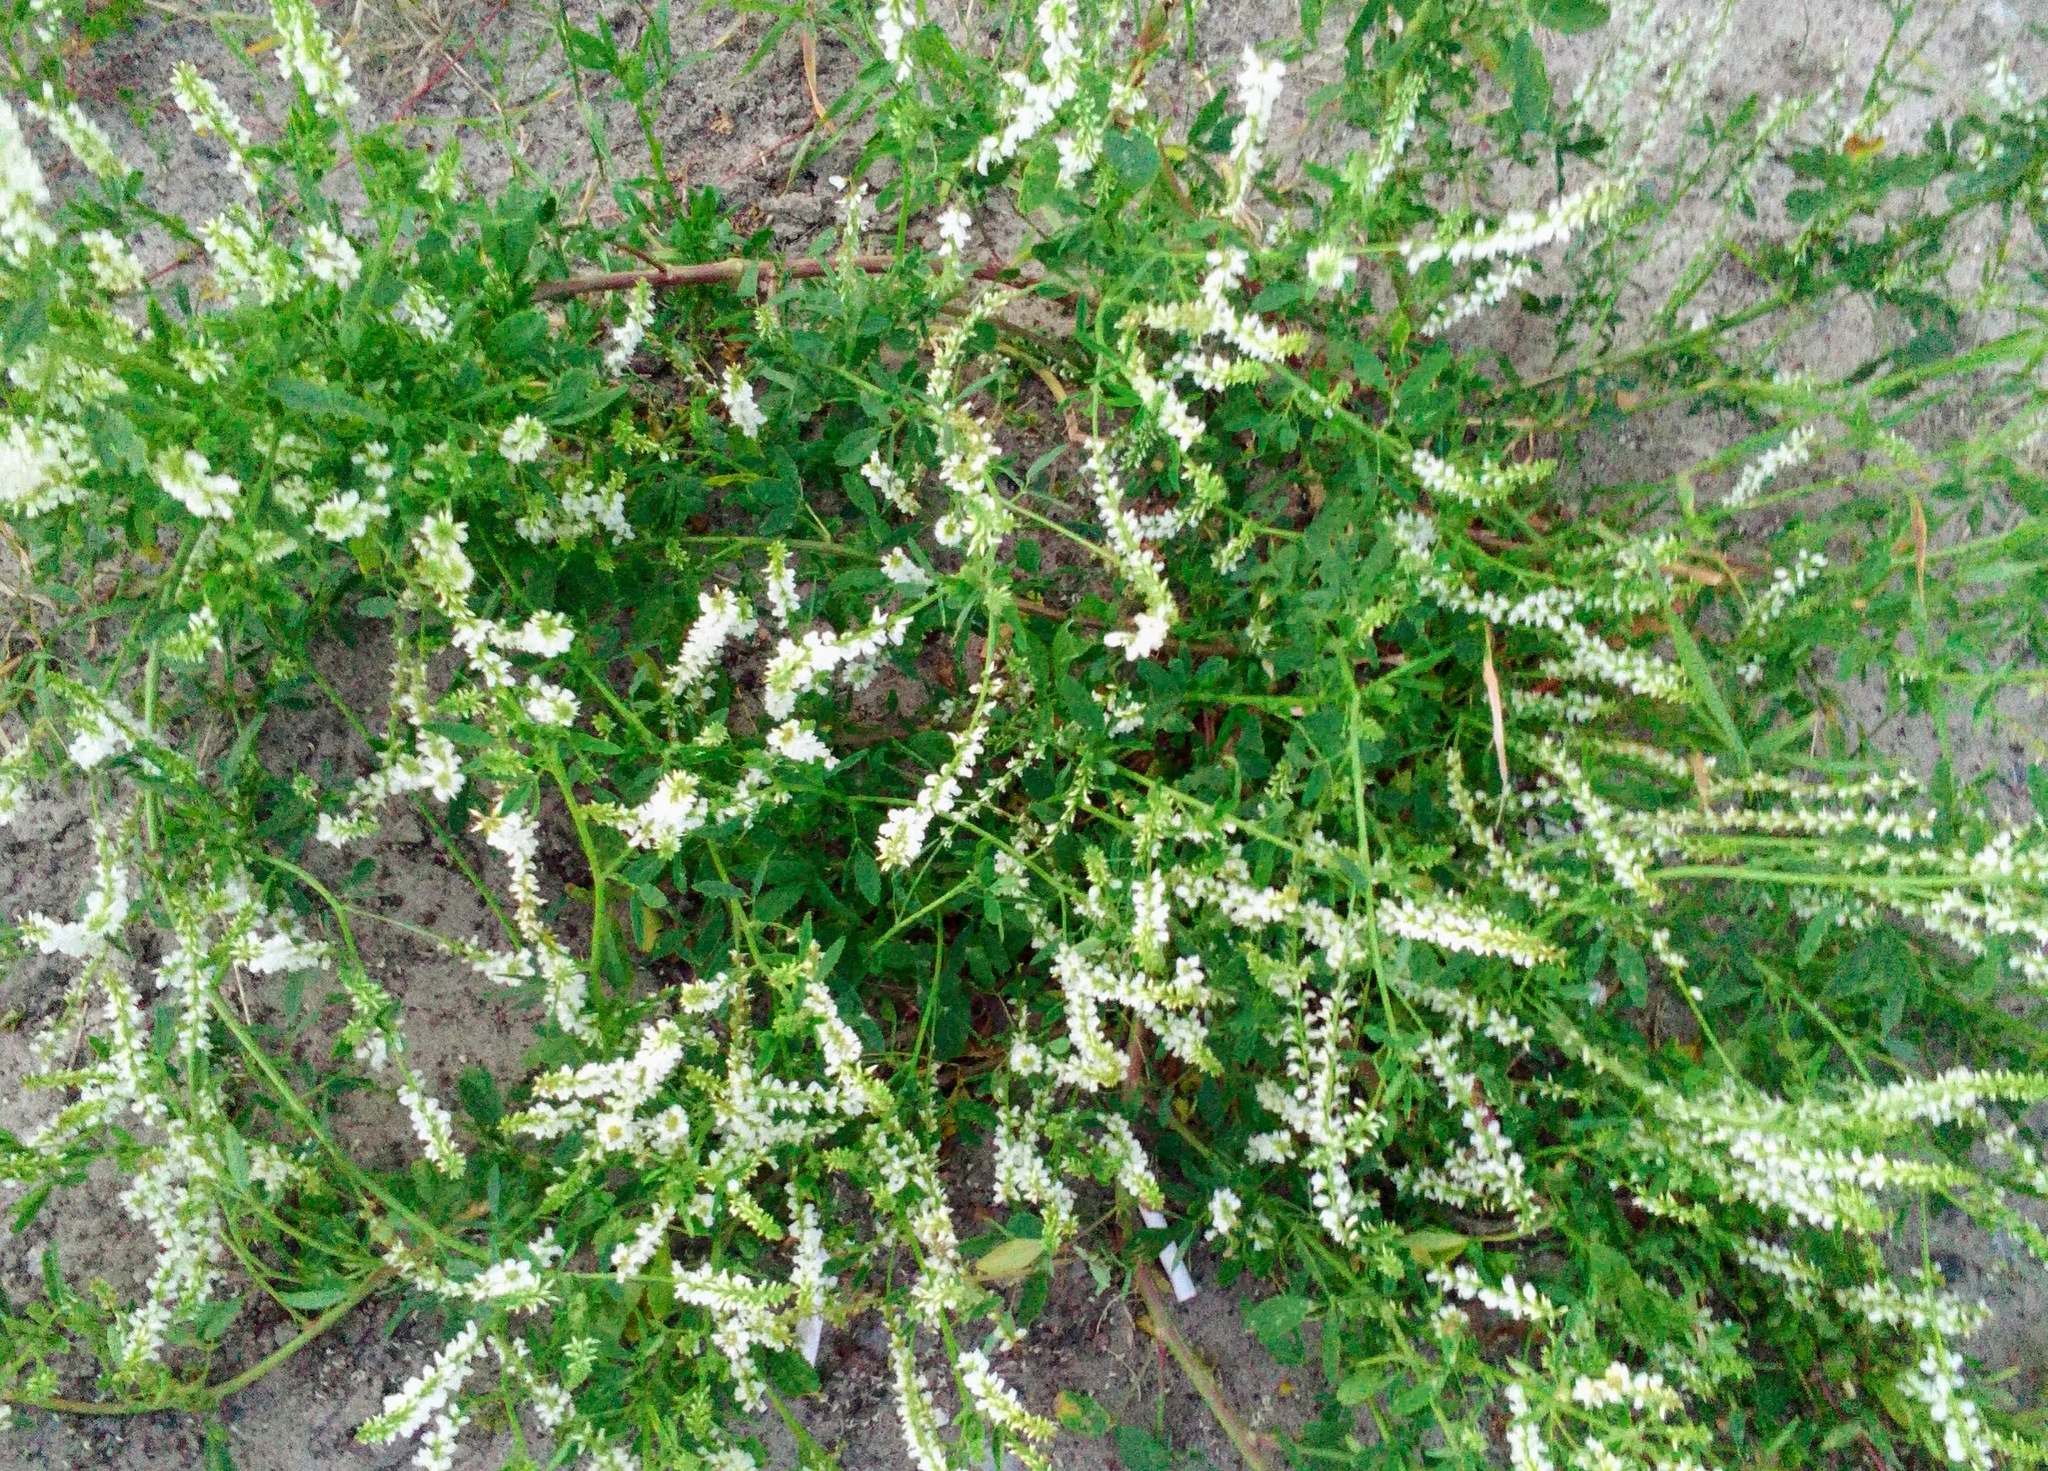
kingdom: Plantae
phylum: Tracheophyta
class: Magnoliopsida
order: Fabales
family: Fabaceae
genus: Melilotus
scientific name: Melilotus albus
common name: White melilot
